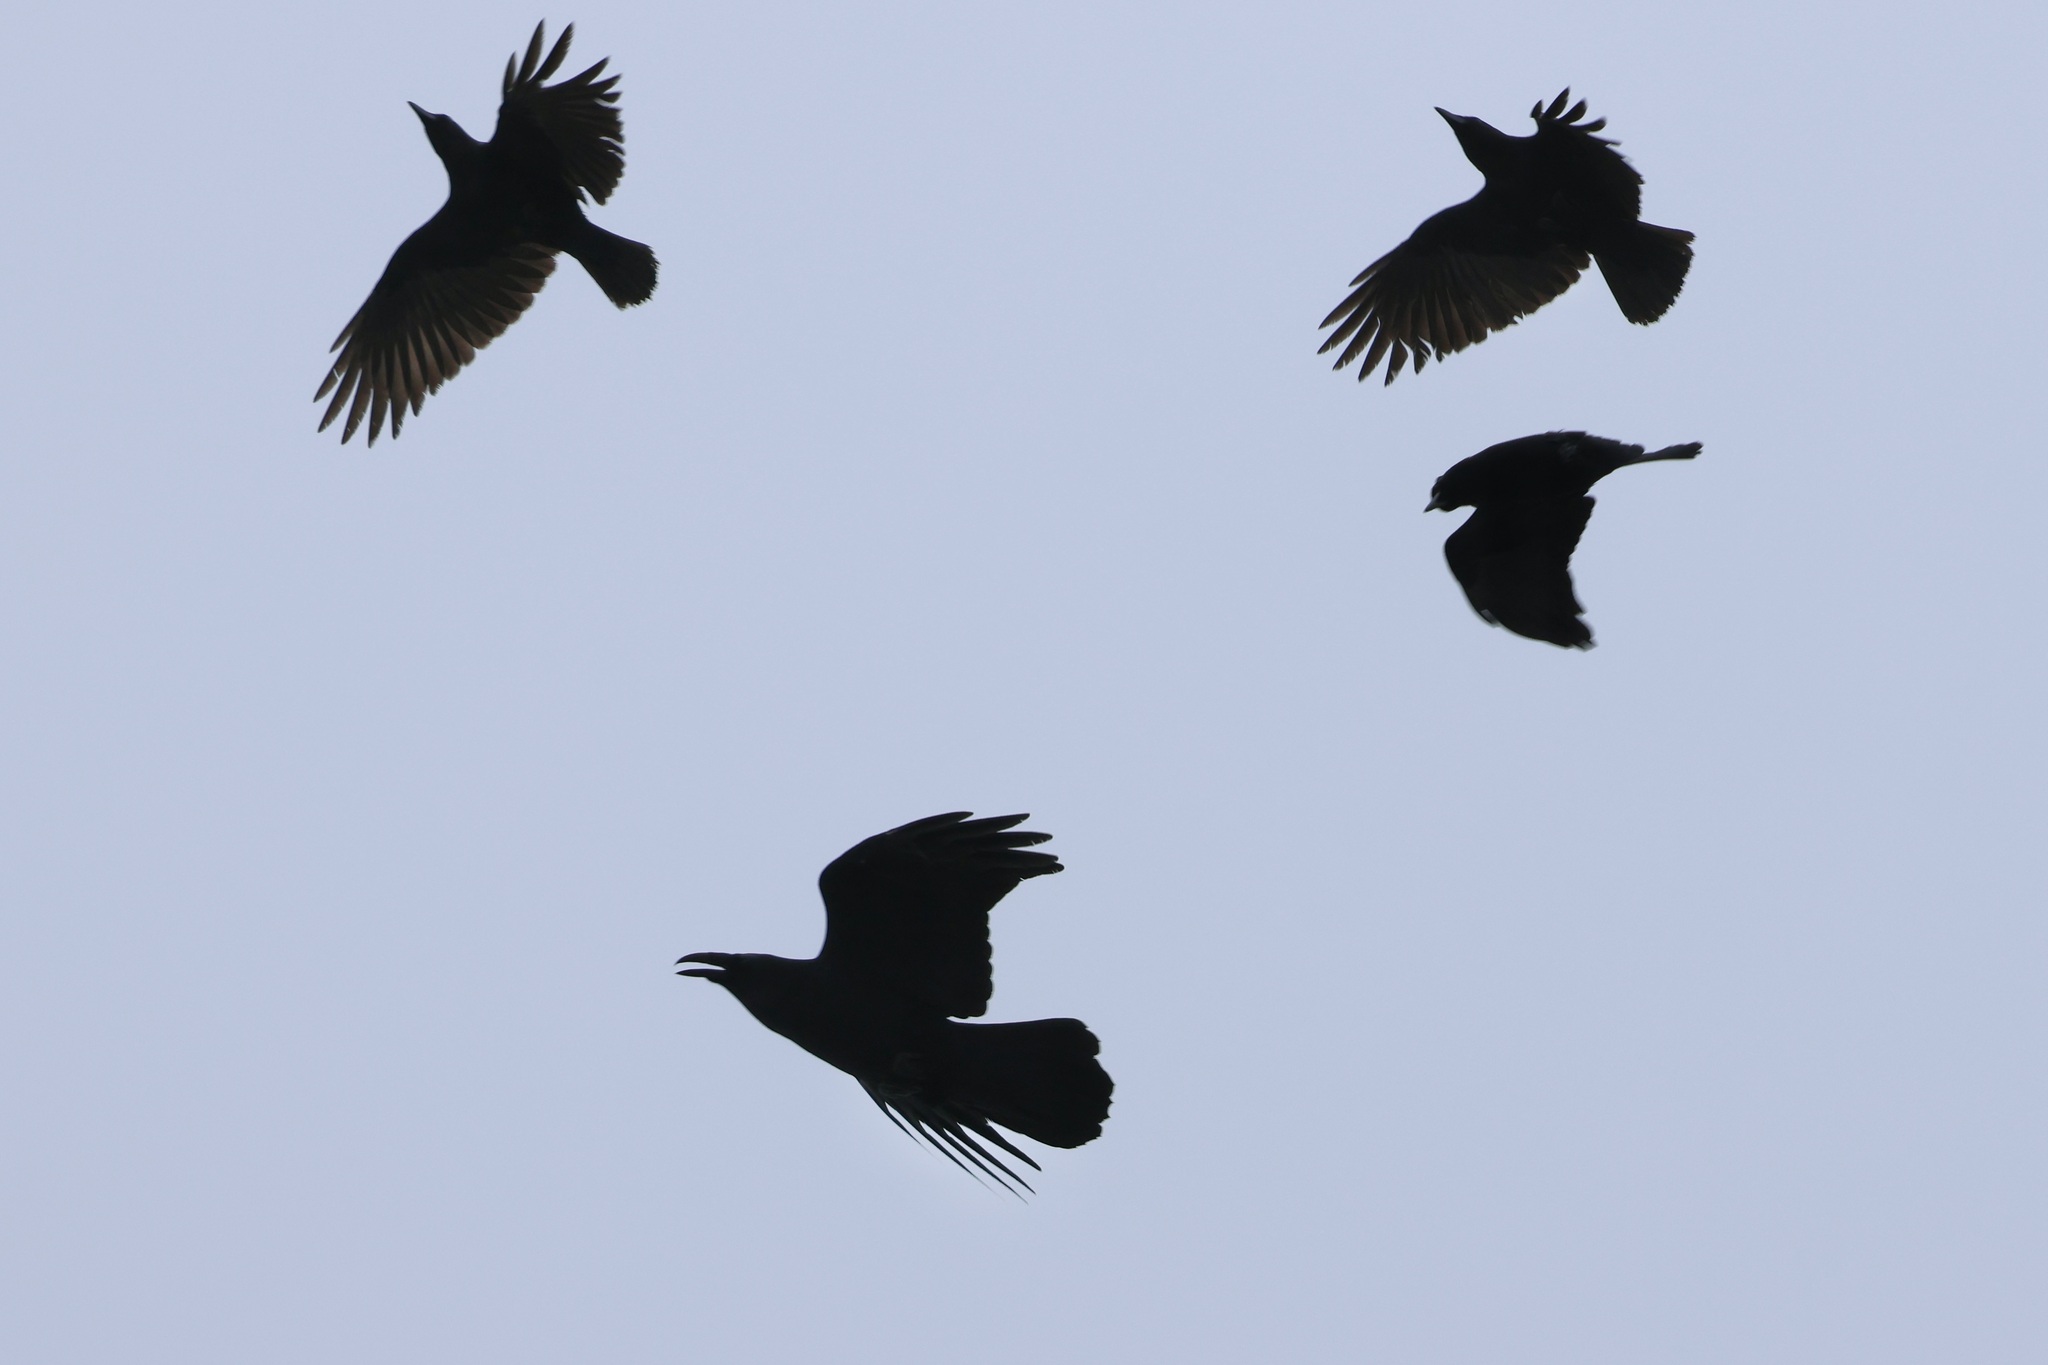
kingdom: Animalia
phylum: Chordata
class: Aves
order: Passeriformes
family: Corvidae
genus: Corvus
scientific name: Corvus brachyrhynchos
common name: American crow
